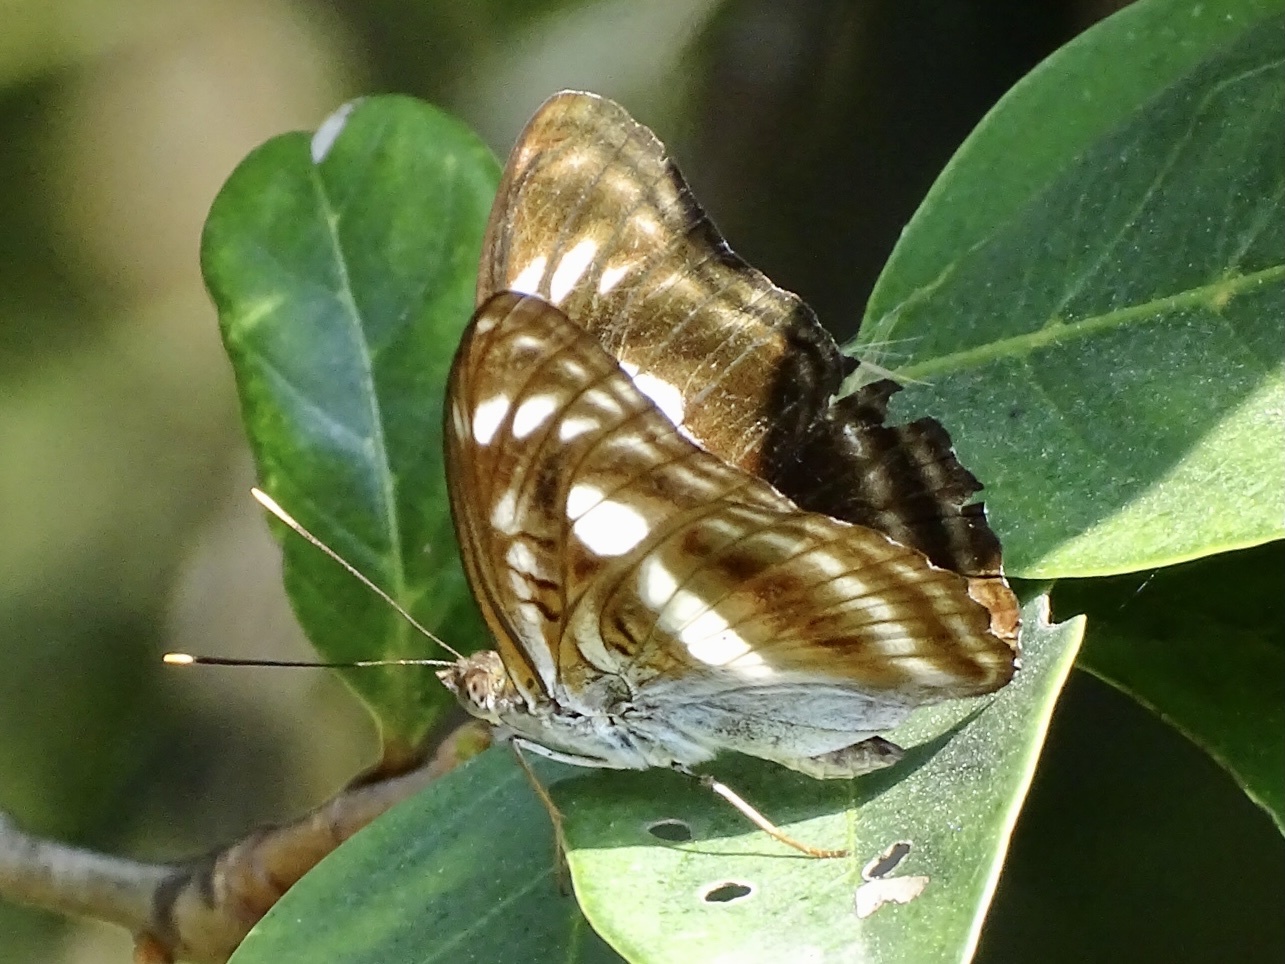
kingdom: Animalia
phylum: Arthropoda
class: Insecta
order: Lepidoptera
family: Nymphalidae
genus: Parathyma
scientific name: Parathyma selenophora
